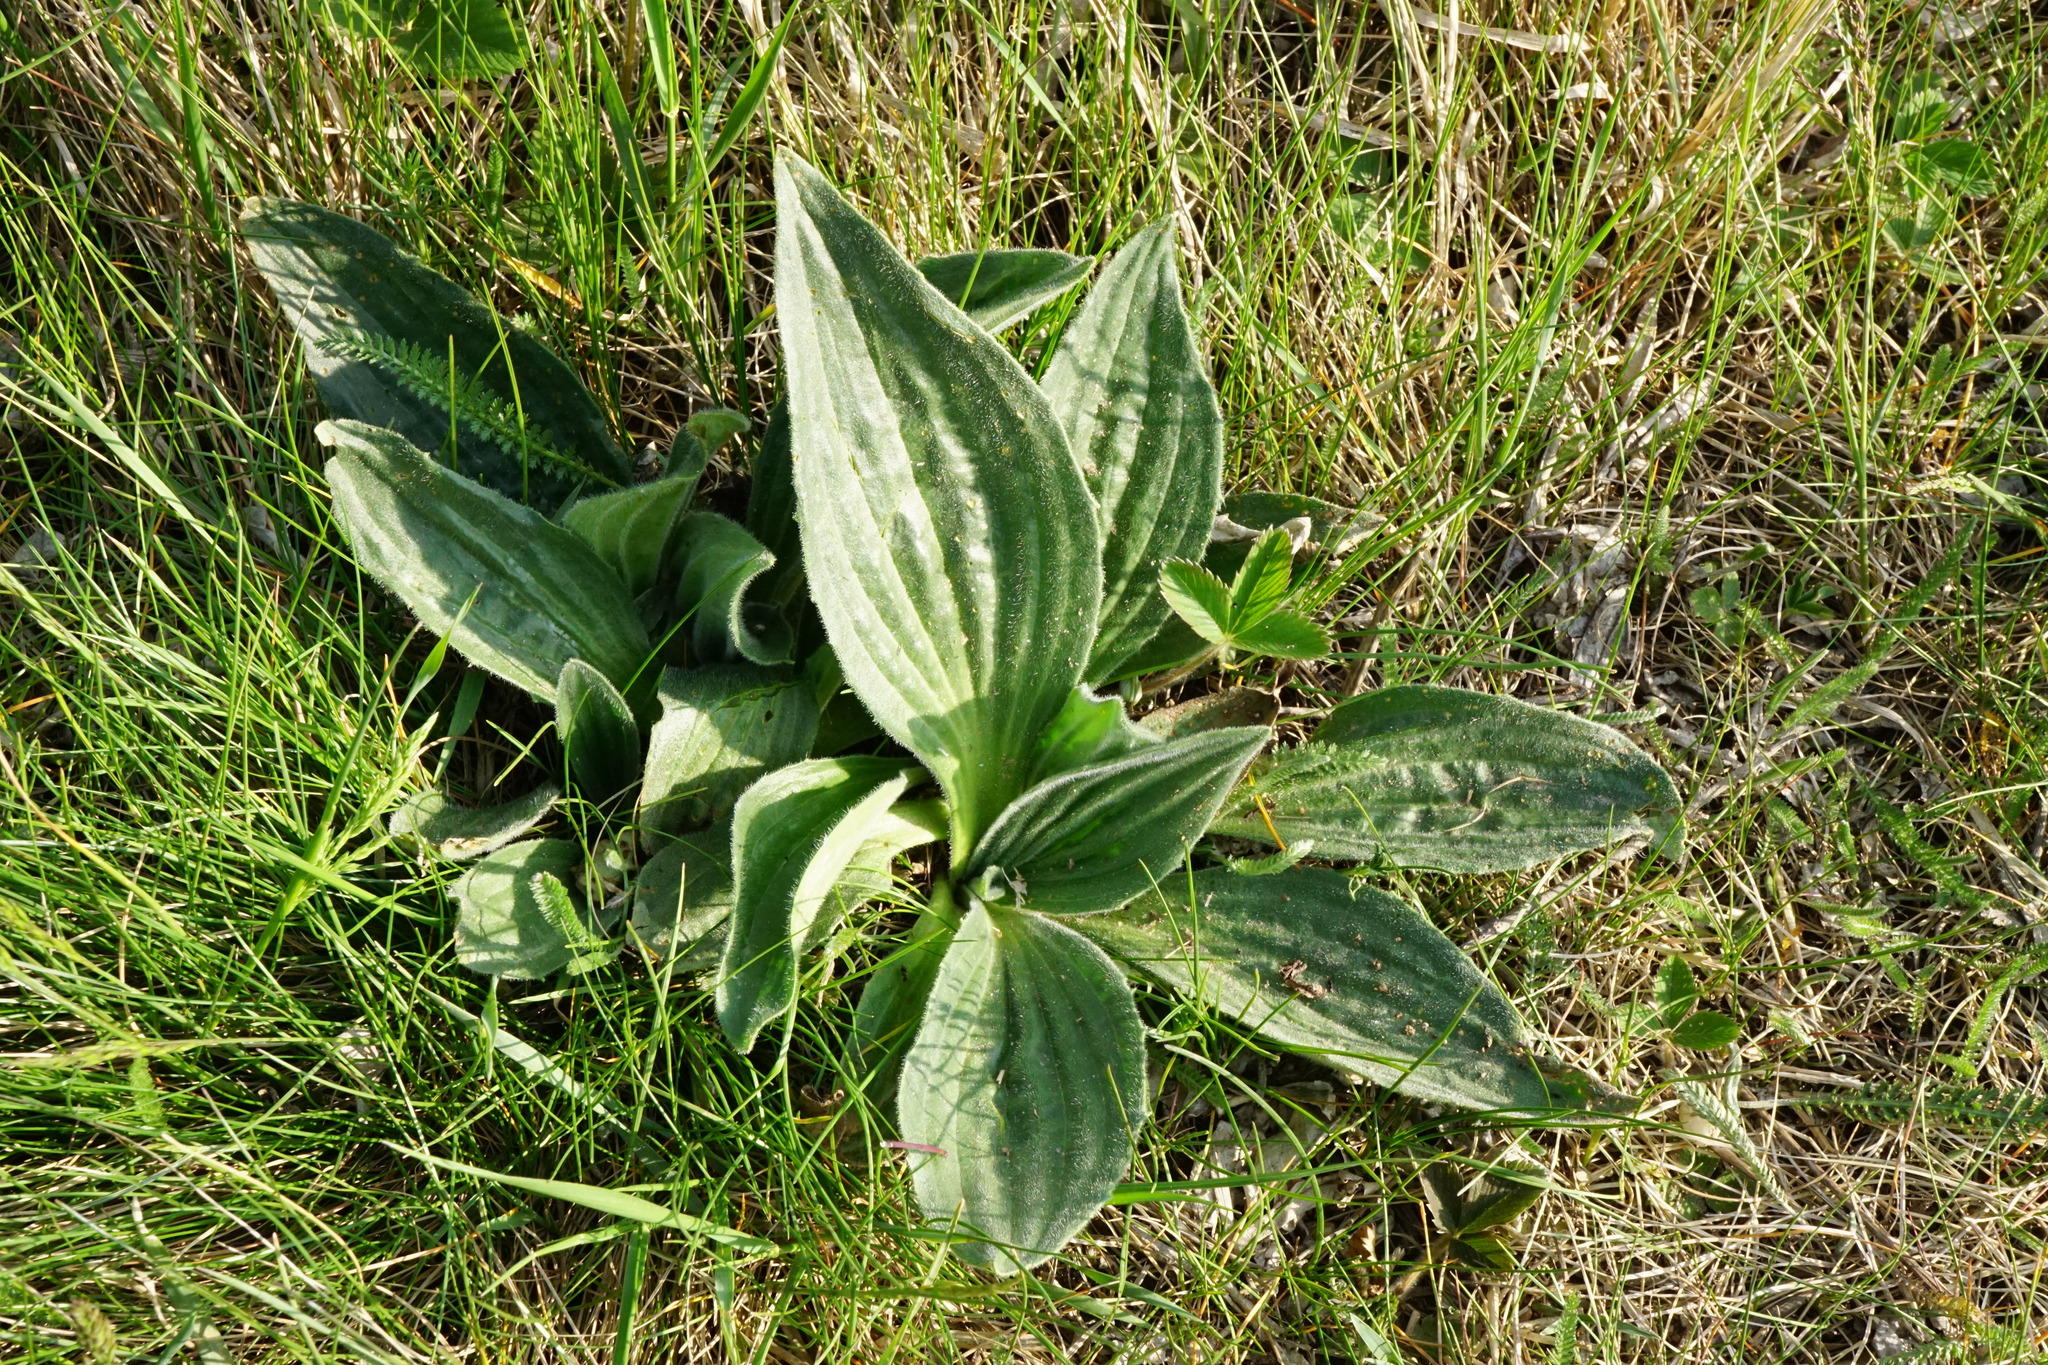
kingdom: Plantae
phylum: Tracheophyta
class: Magnoliopsida
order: Lamiales
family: Plantaginaceae
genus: Plantago
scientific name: Plantago media
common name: Hoary plantain
